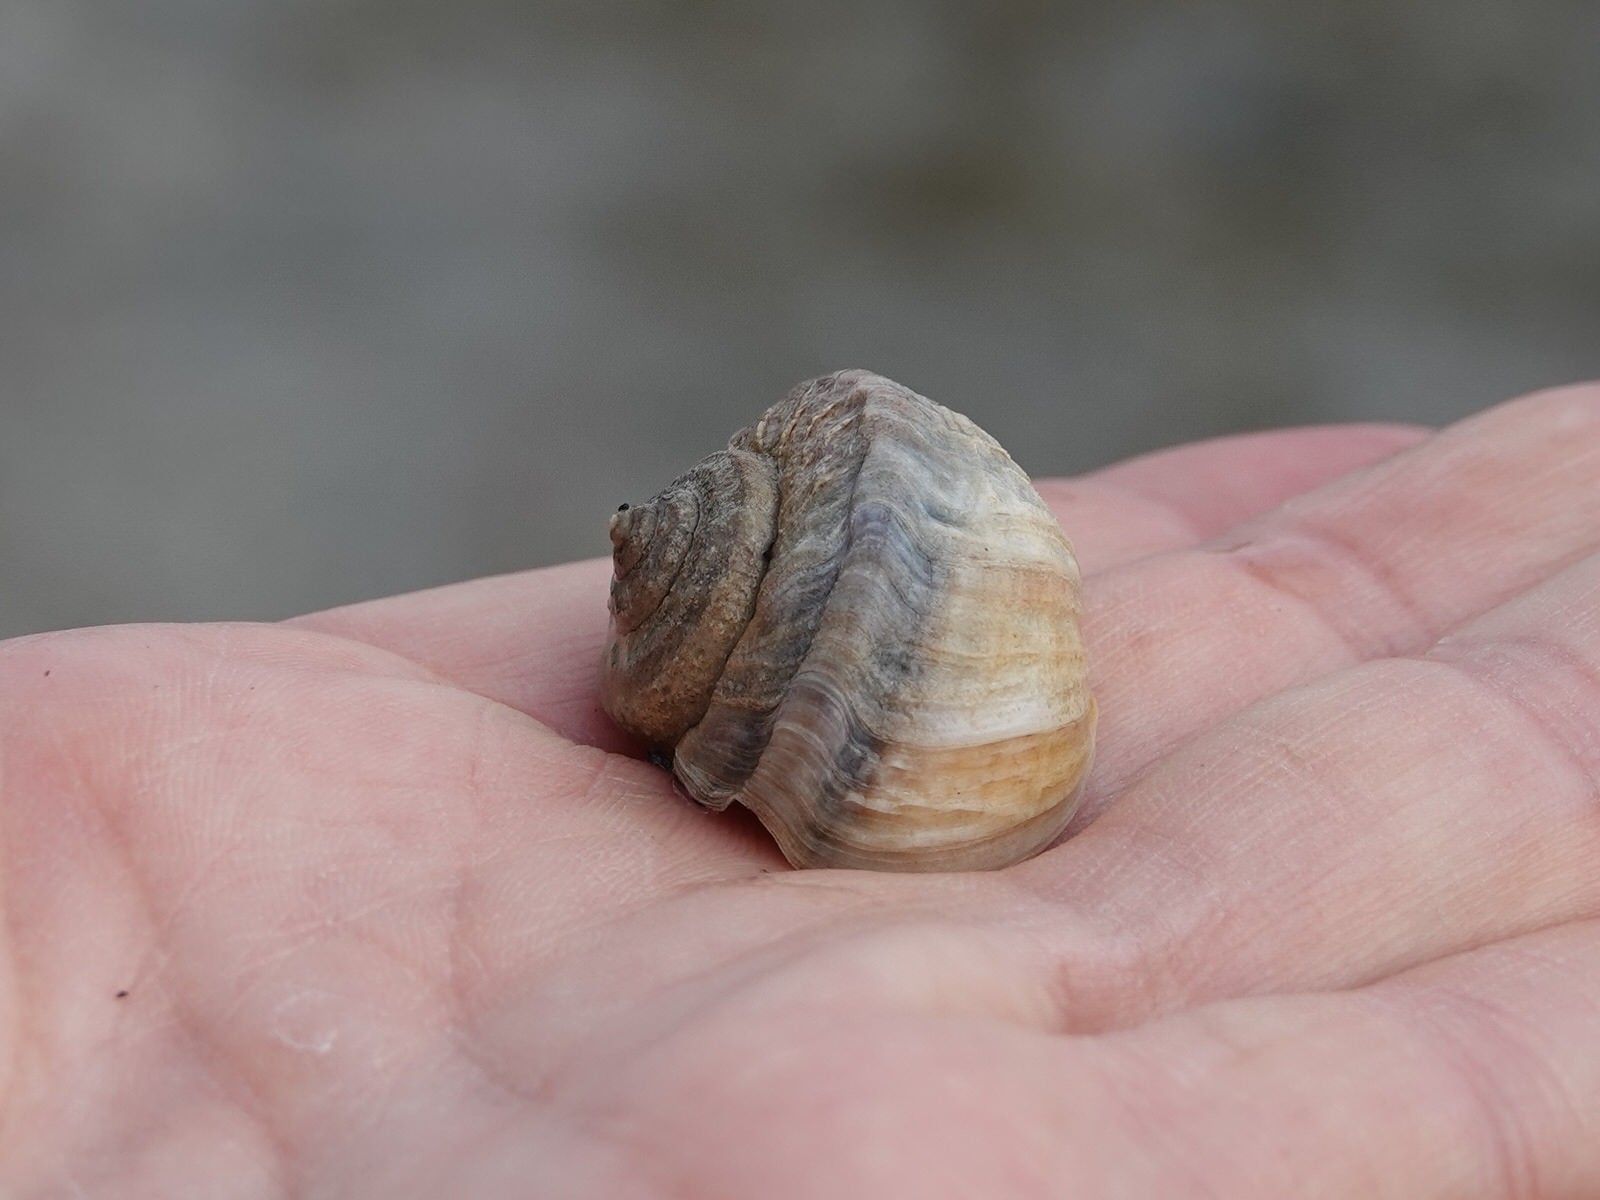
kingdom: Animalia
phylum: Mollusca
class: Gastropoda
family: Amphibolidae
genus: Amphibola
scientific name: Amphibola crenata
